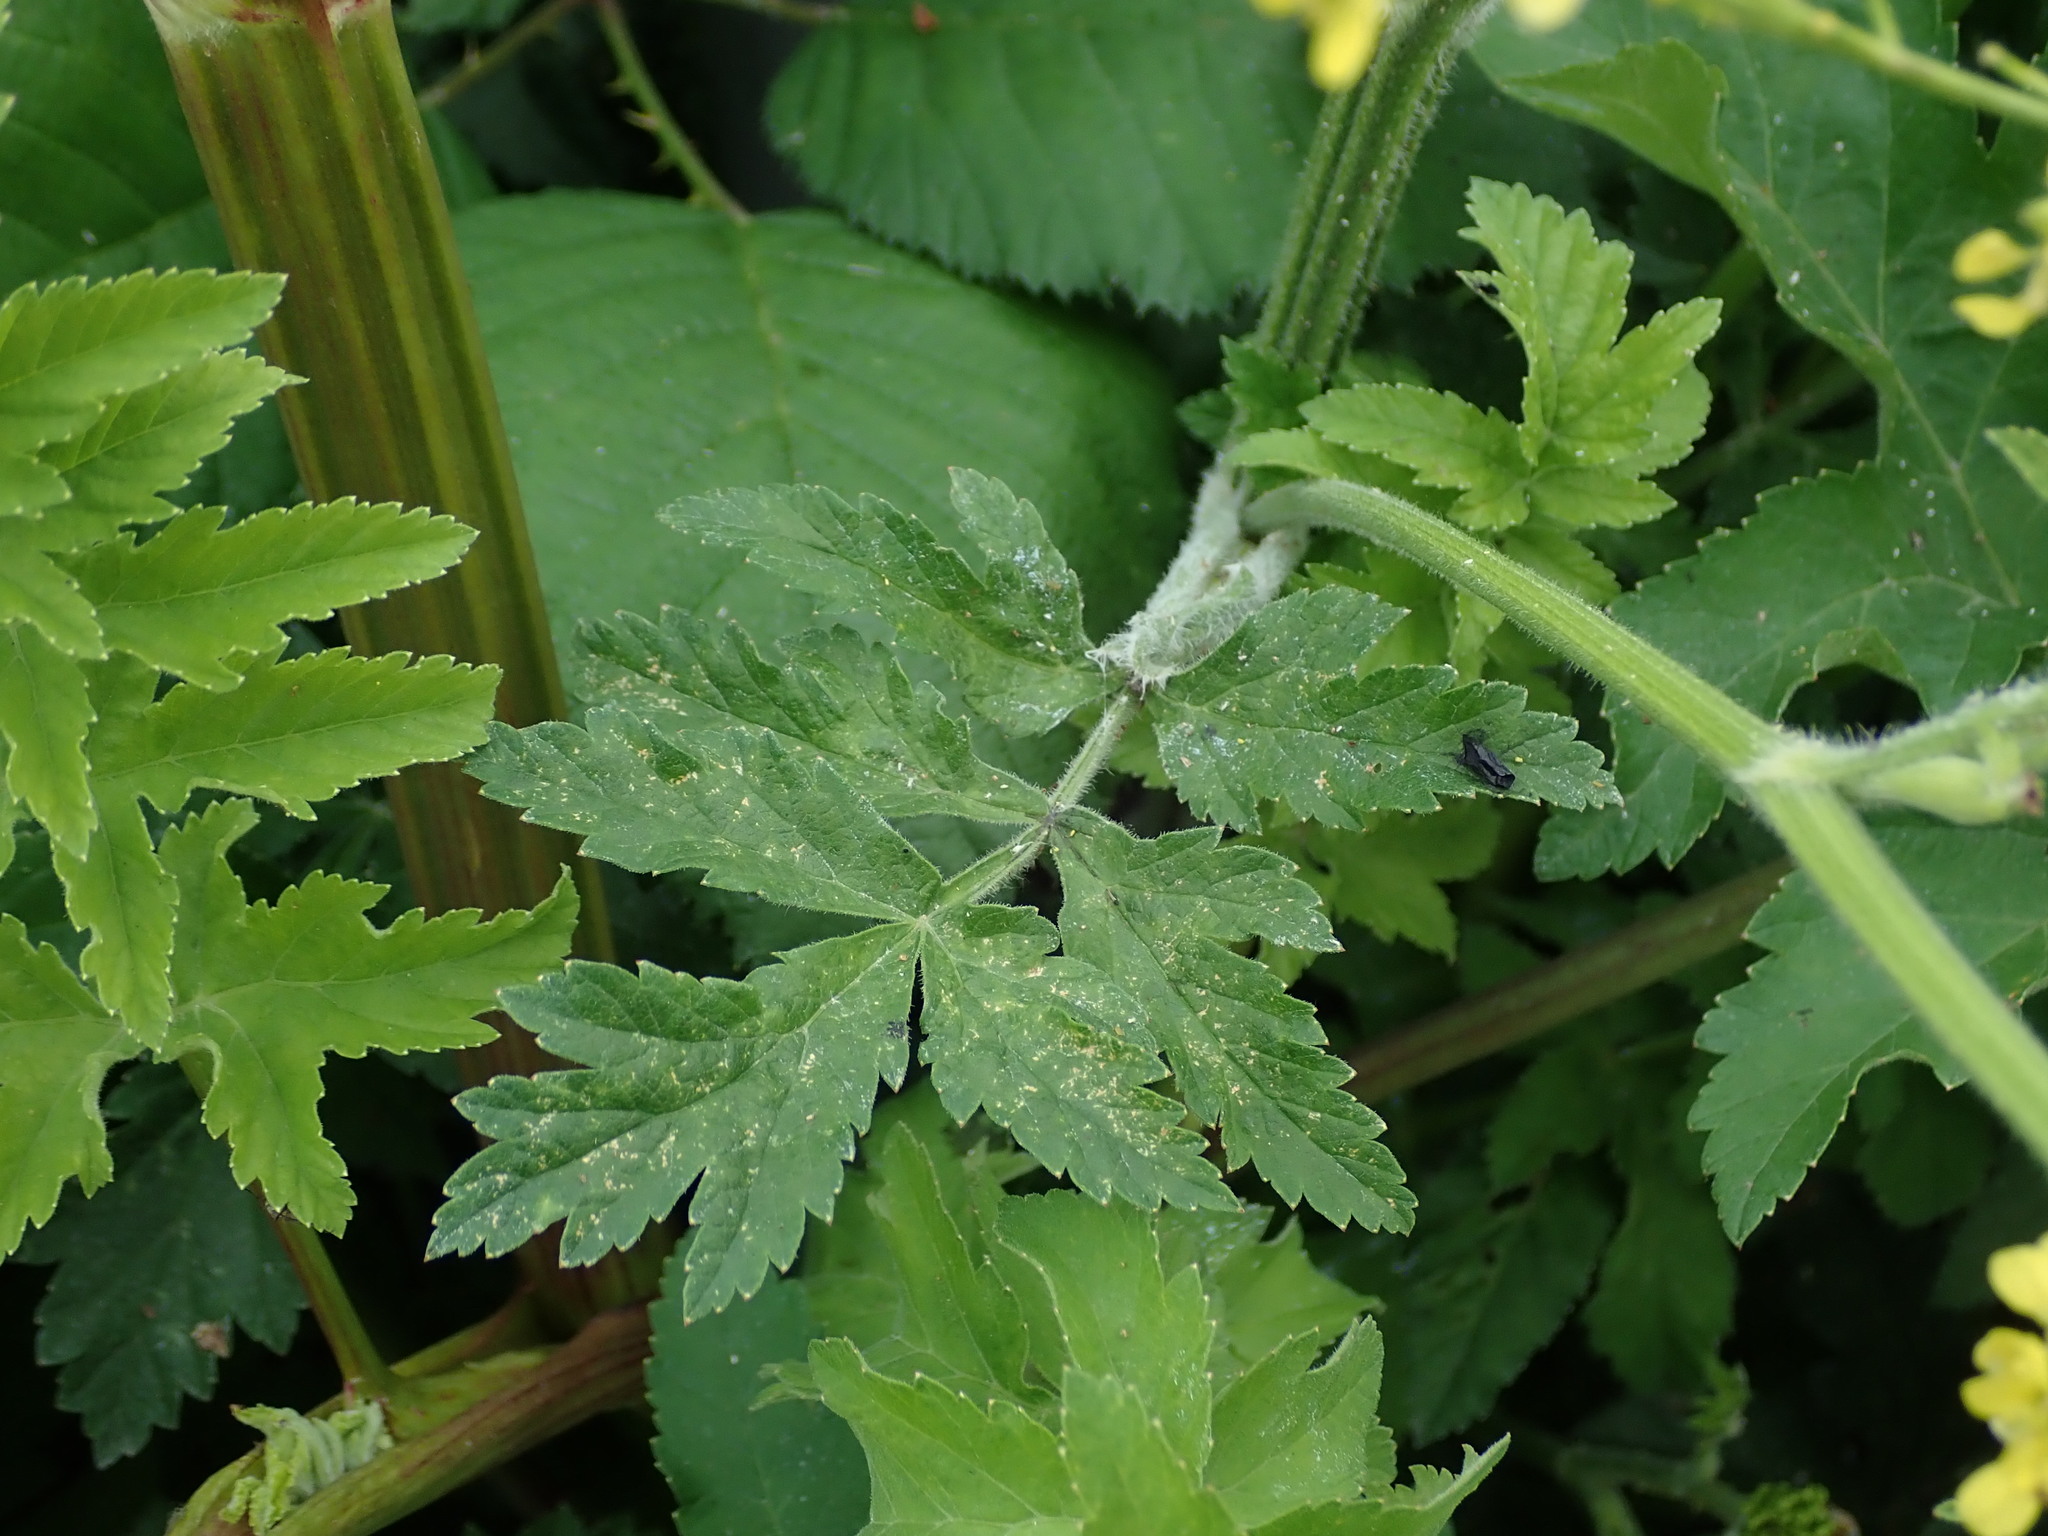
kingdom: Plantae
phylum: Tracheophyta
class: Magnoliopsida
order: Apiales
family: Apiaceae
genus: Pastinaca
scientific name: Pastinaca sativa
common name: Wild parsnip
